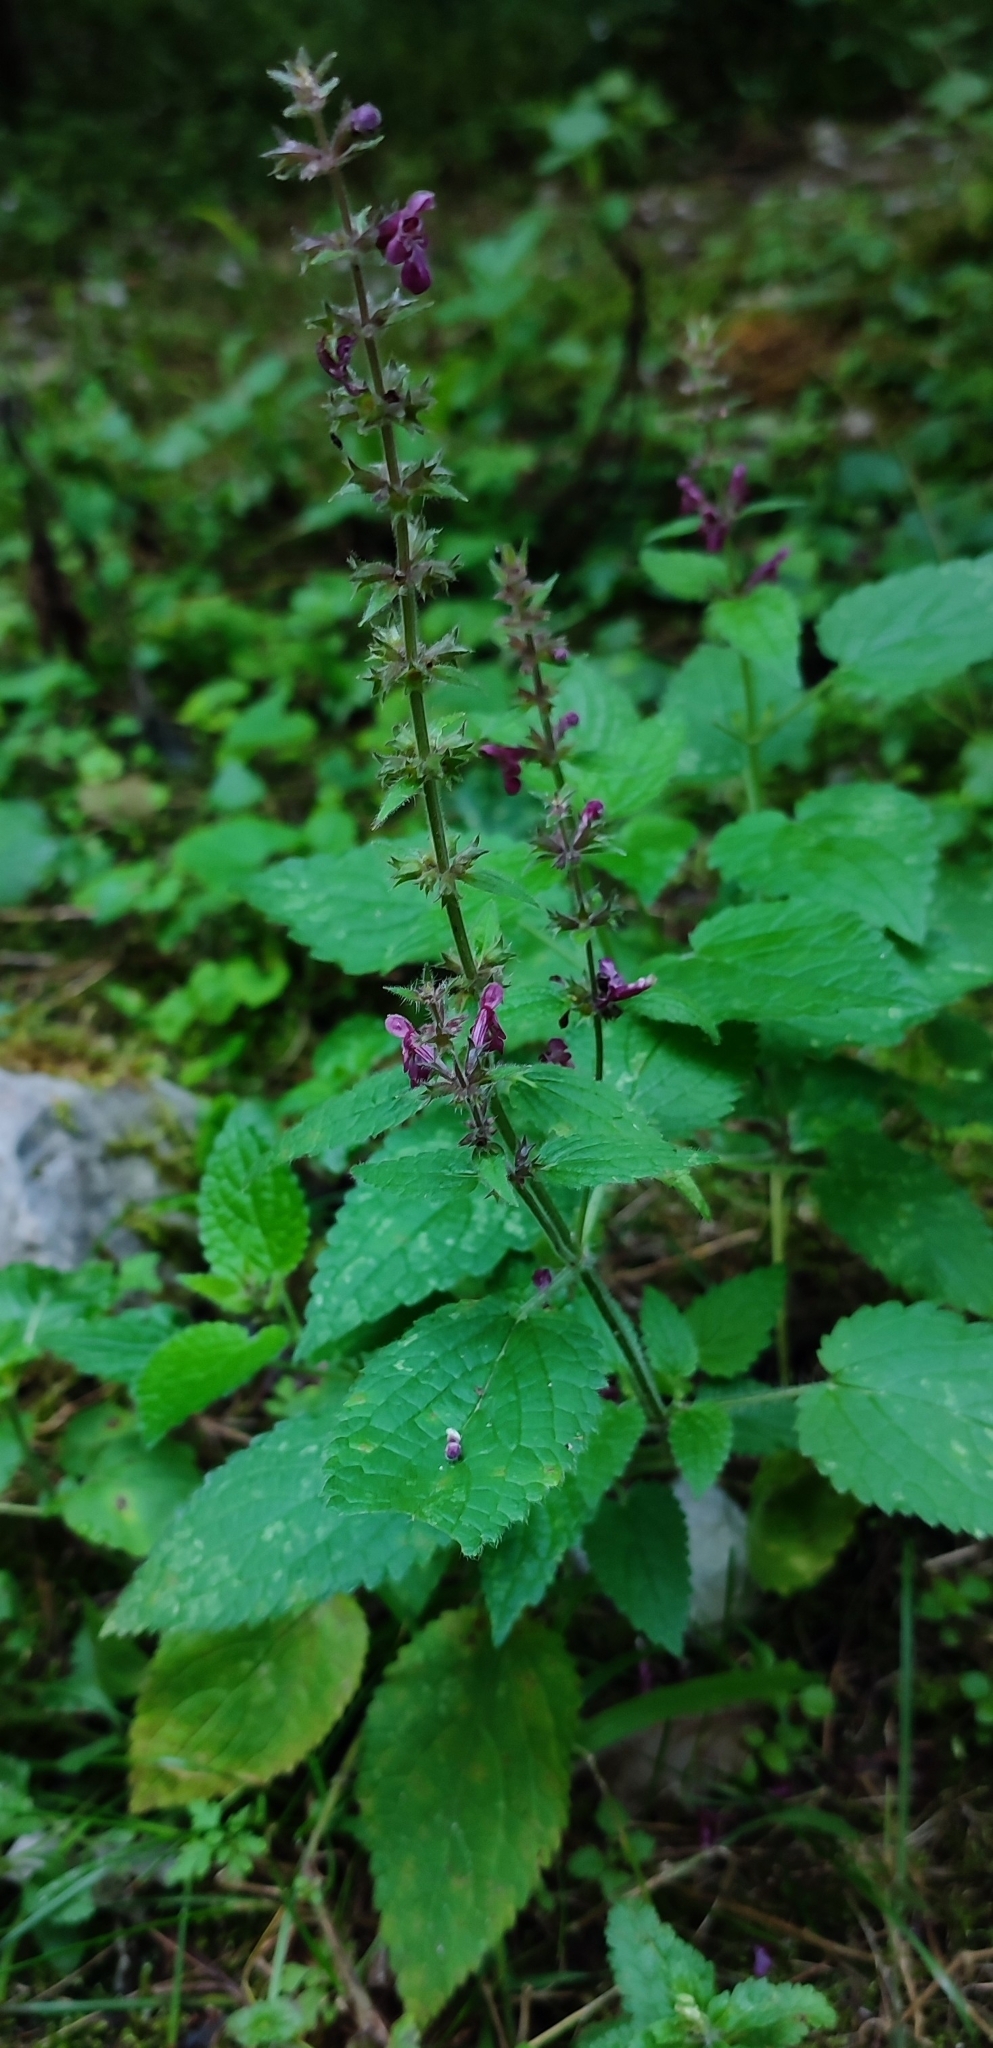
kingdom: Plantae
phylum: Tracheophyta
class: Magnoliopsida
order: Lamiales
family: Lamiaceae
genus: Stachys
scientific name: Stachys sylvatica
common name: Hedge woundwort
